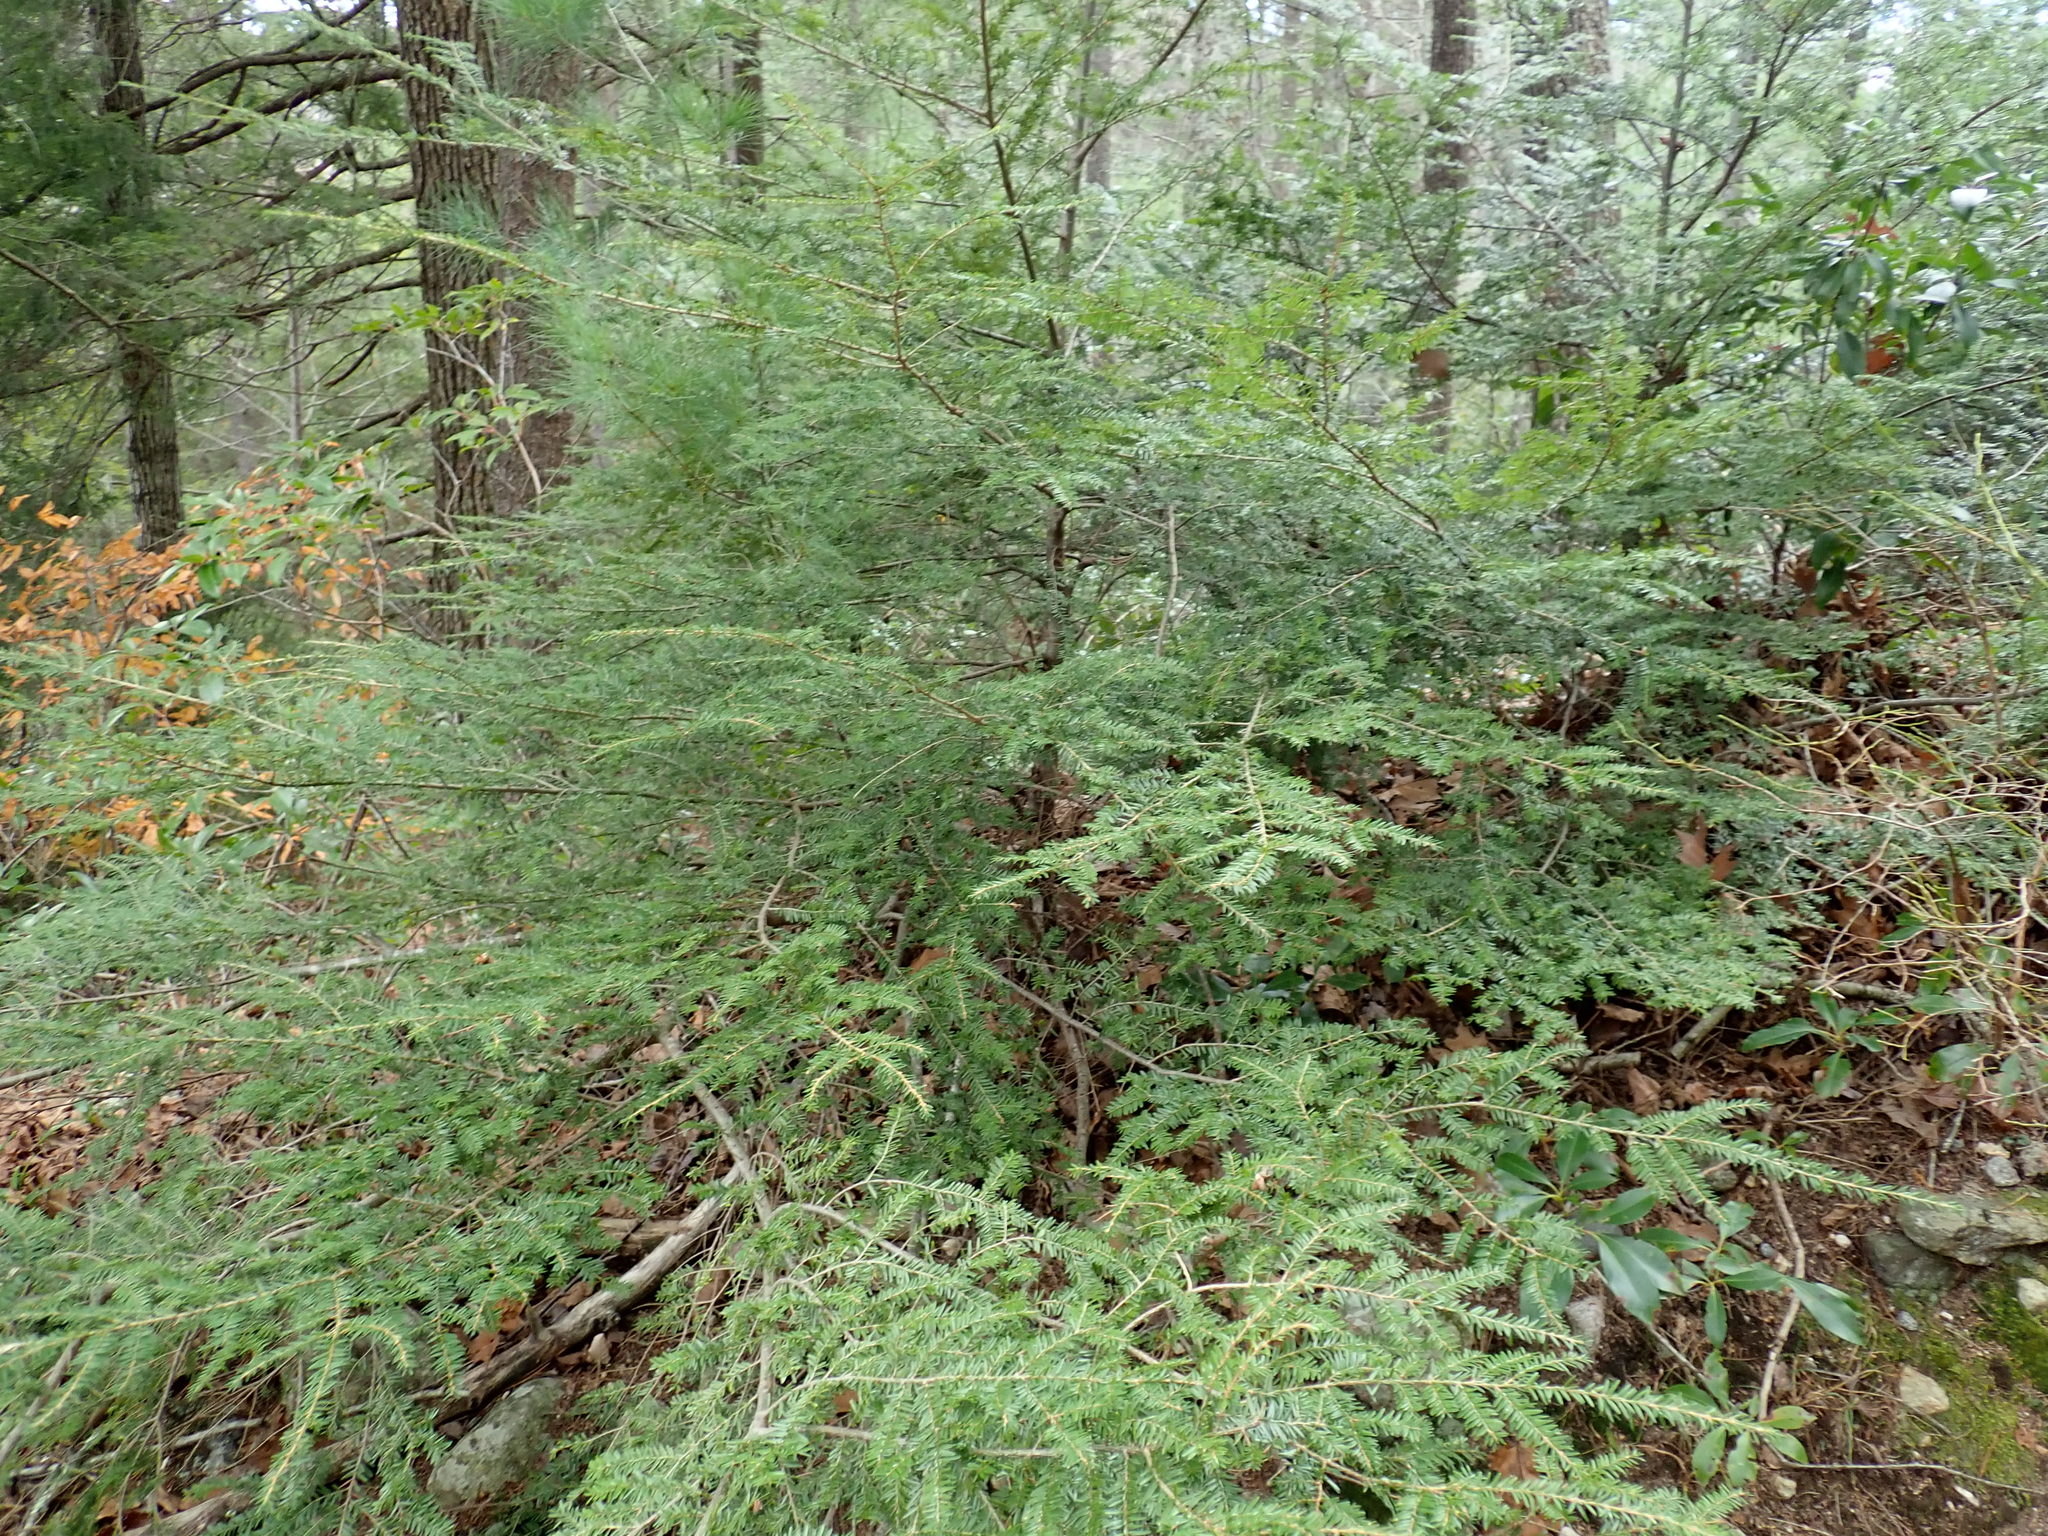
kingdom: Plantae
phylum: Tracheophyta
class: Pinopsida
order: Pinales
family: Pinaceae
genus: Tsuga
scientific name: Tsuga canadensis
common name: Eastern hemlock
